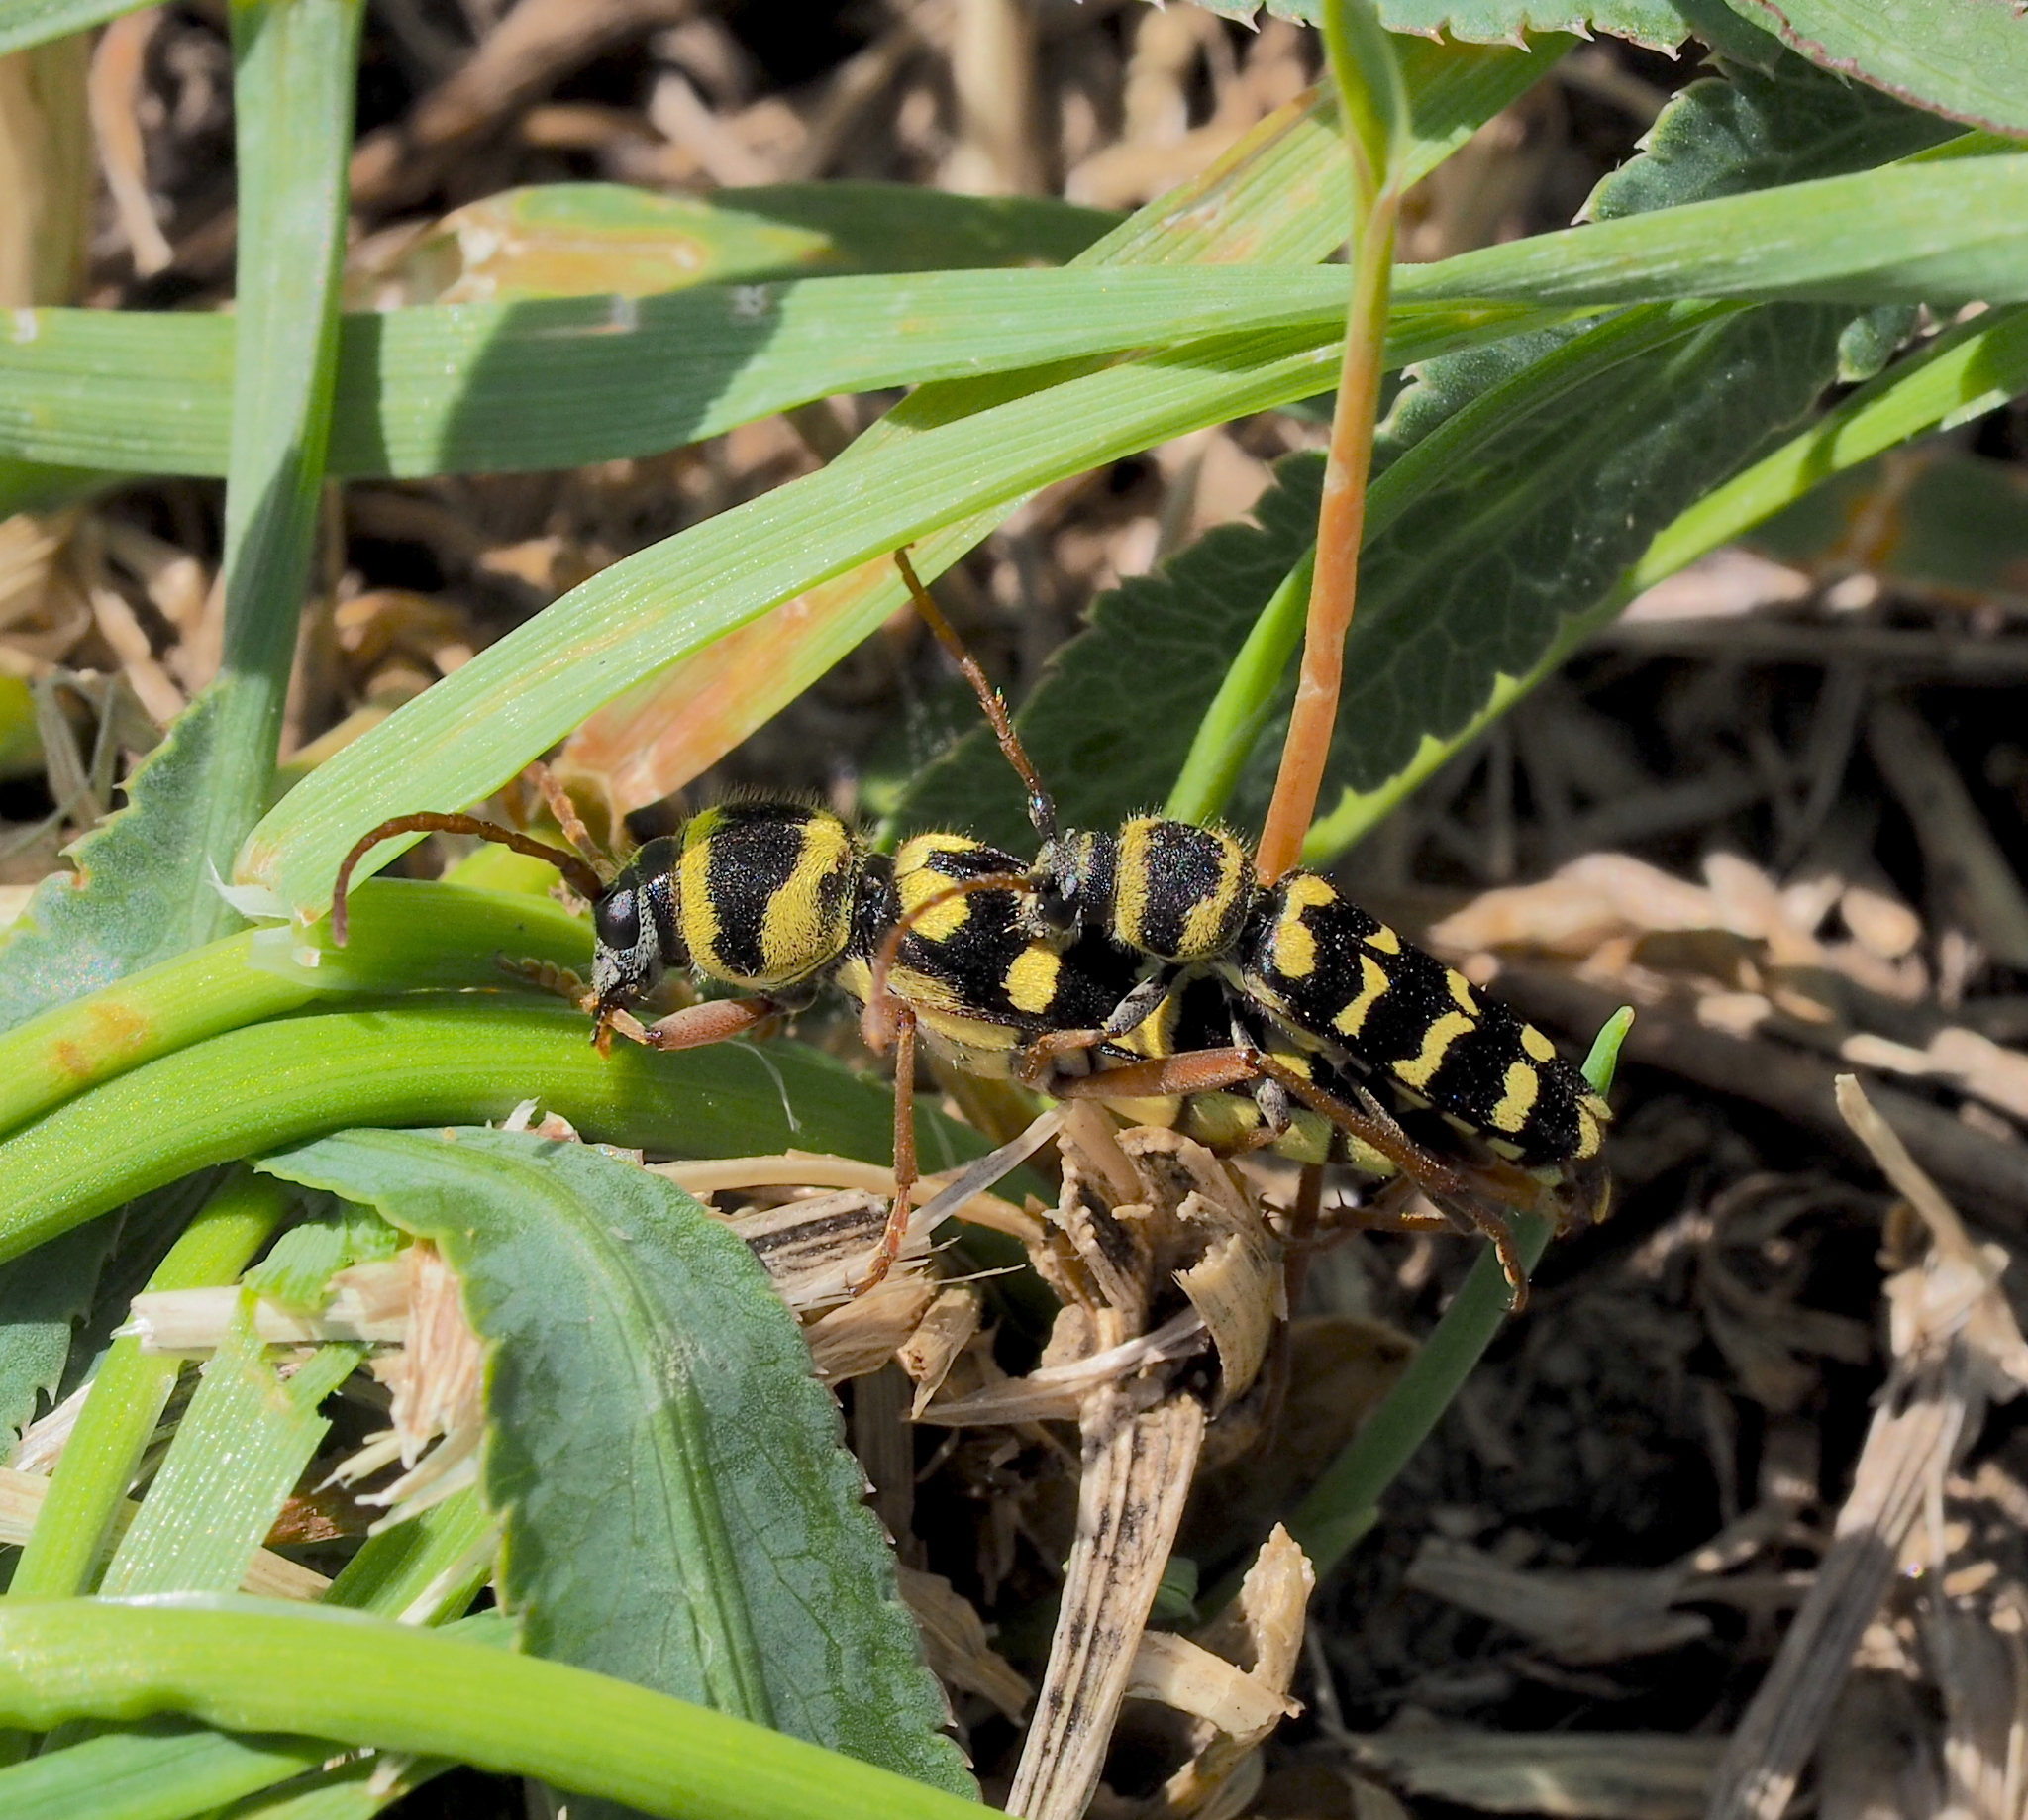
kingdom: Animalia
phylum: Arthropoda
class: Insecta
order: Coleoptera
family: Cerambycidae
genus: Plagionotus
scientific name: Plagionotus floralis
